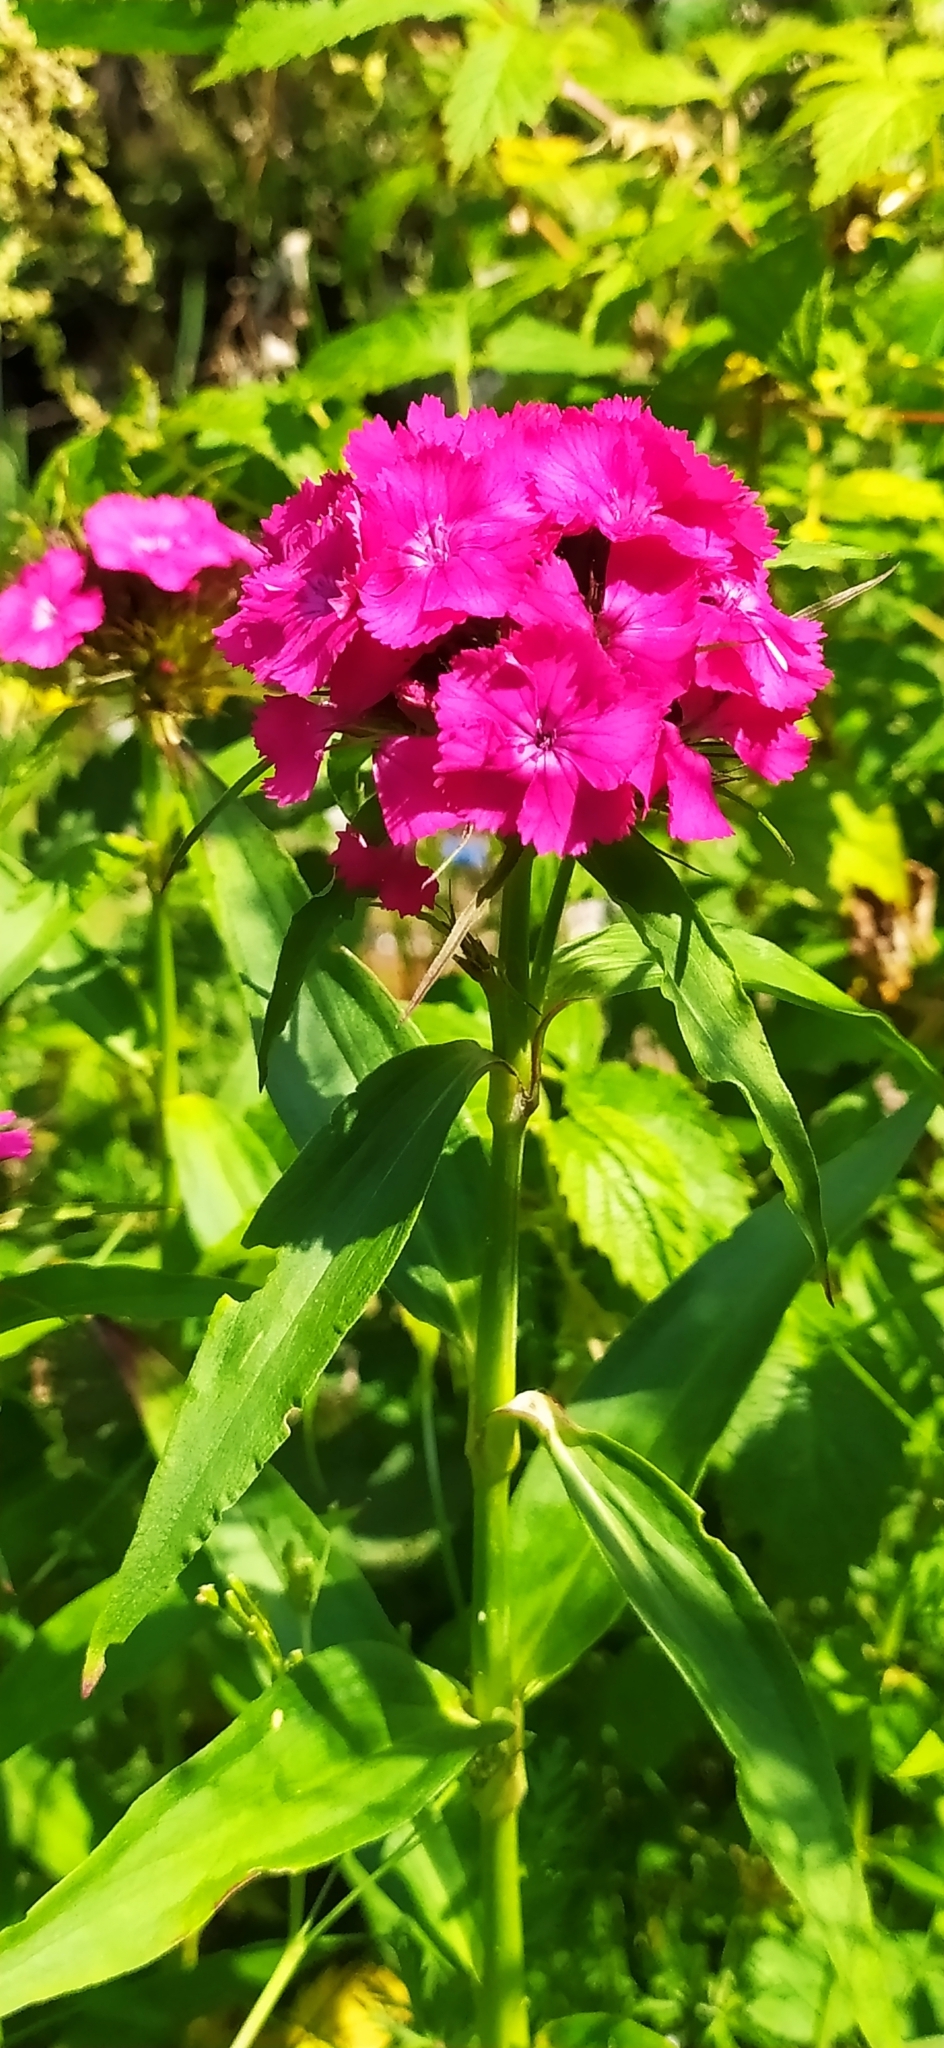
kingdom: Plantae
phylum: Tracheophyta
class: Magnoliopsida
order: Caryophyllales
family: Caryophyllaceae
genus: Dianthus
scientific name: Dianthus barbatus
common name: Sweet-william
